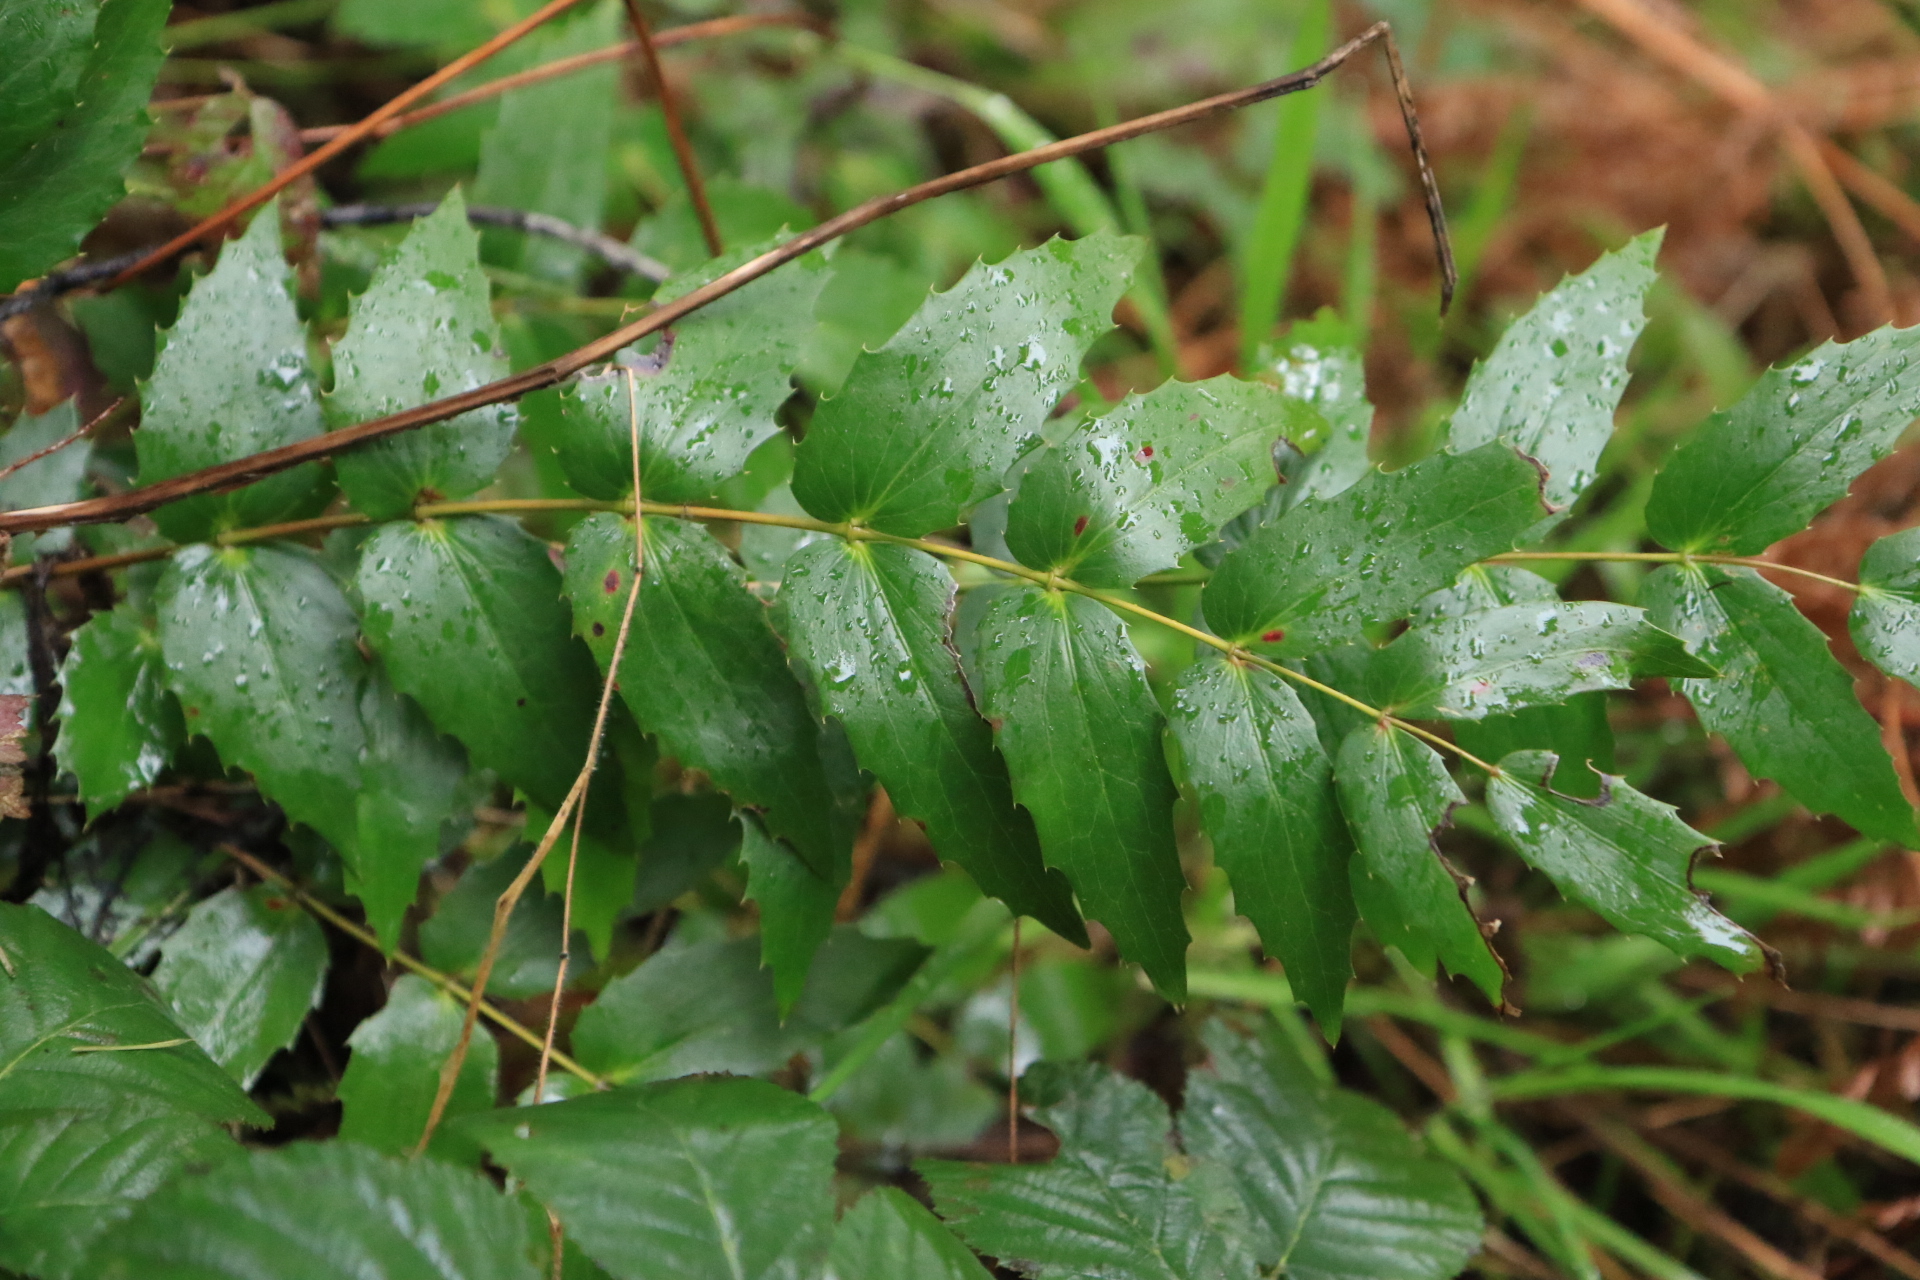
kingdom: Plantae
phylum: Tracheophyta
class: Magnoliopsida
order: Ranunculales
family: Berberidaceae
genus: Mahonia
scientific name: Mahonia nervosa
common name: Cascade oregon-grape
